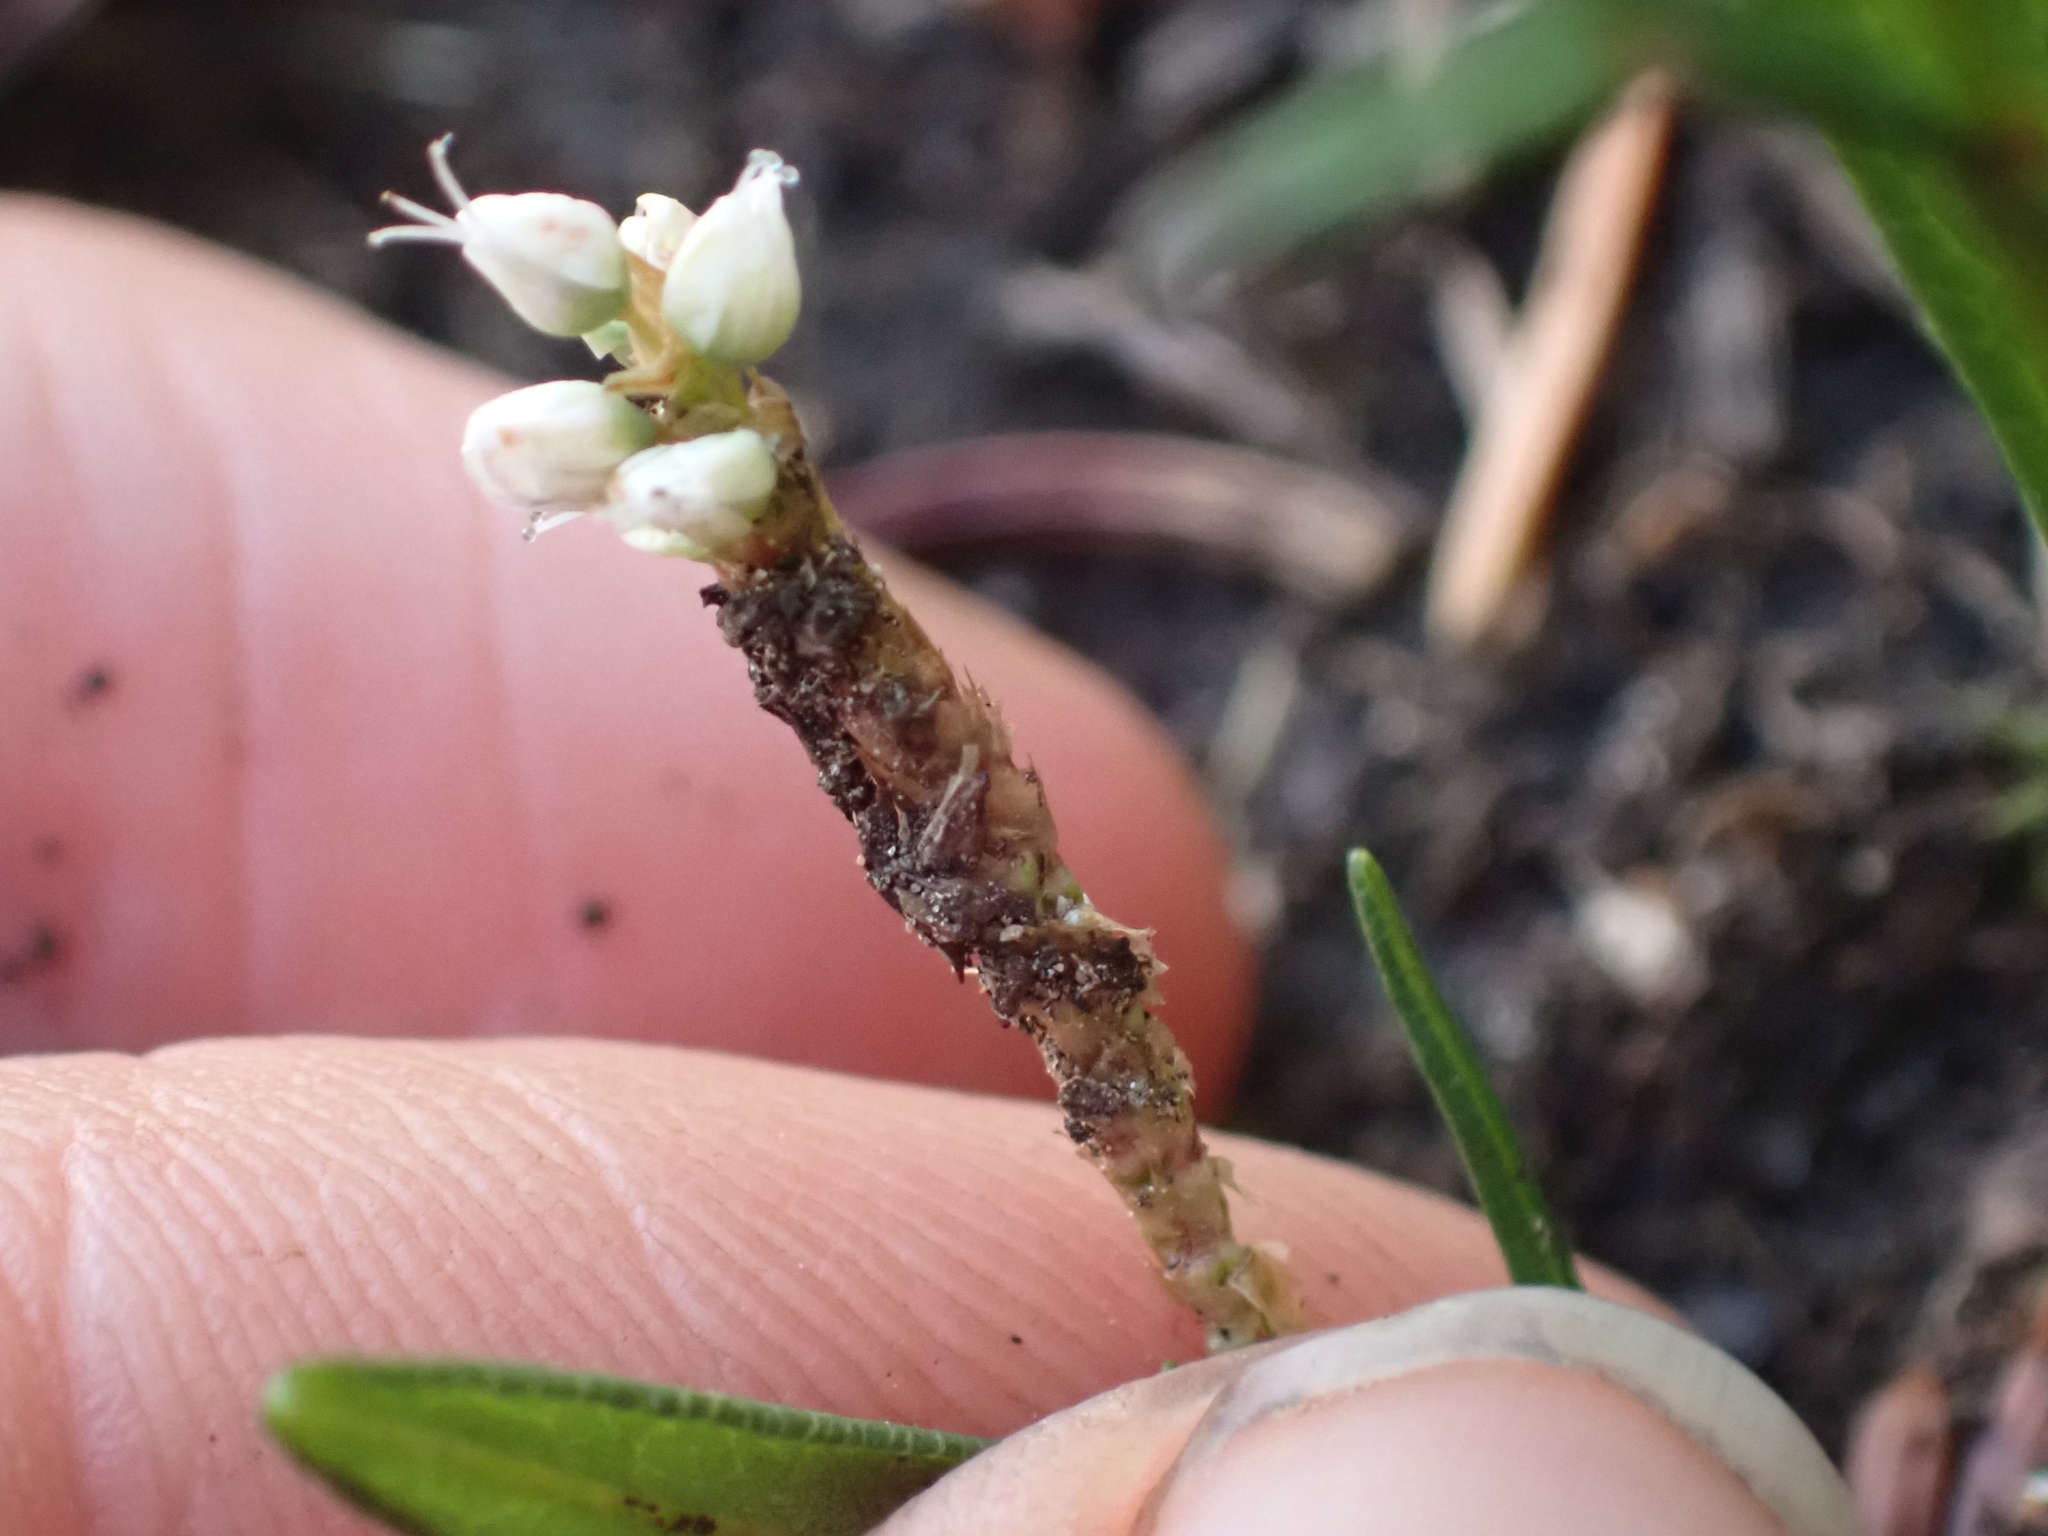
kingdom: Plantae
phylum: Tracheophyta
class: Magnoliopsida
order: Caryophyllales
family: Polygonaceae
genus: Bistorta
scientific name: Bistorta vivipara
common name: Alpine bistort
